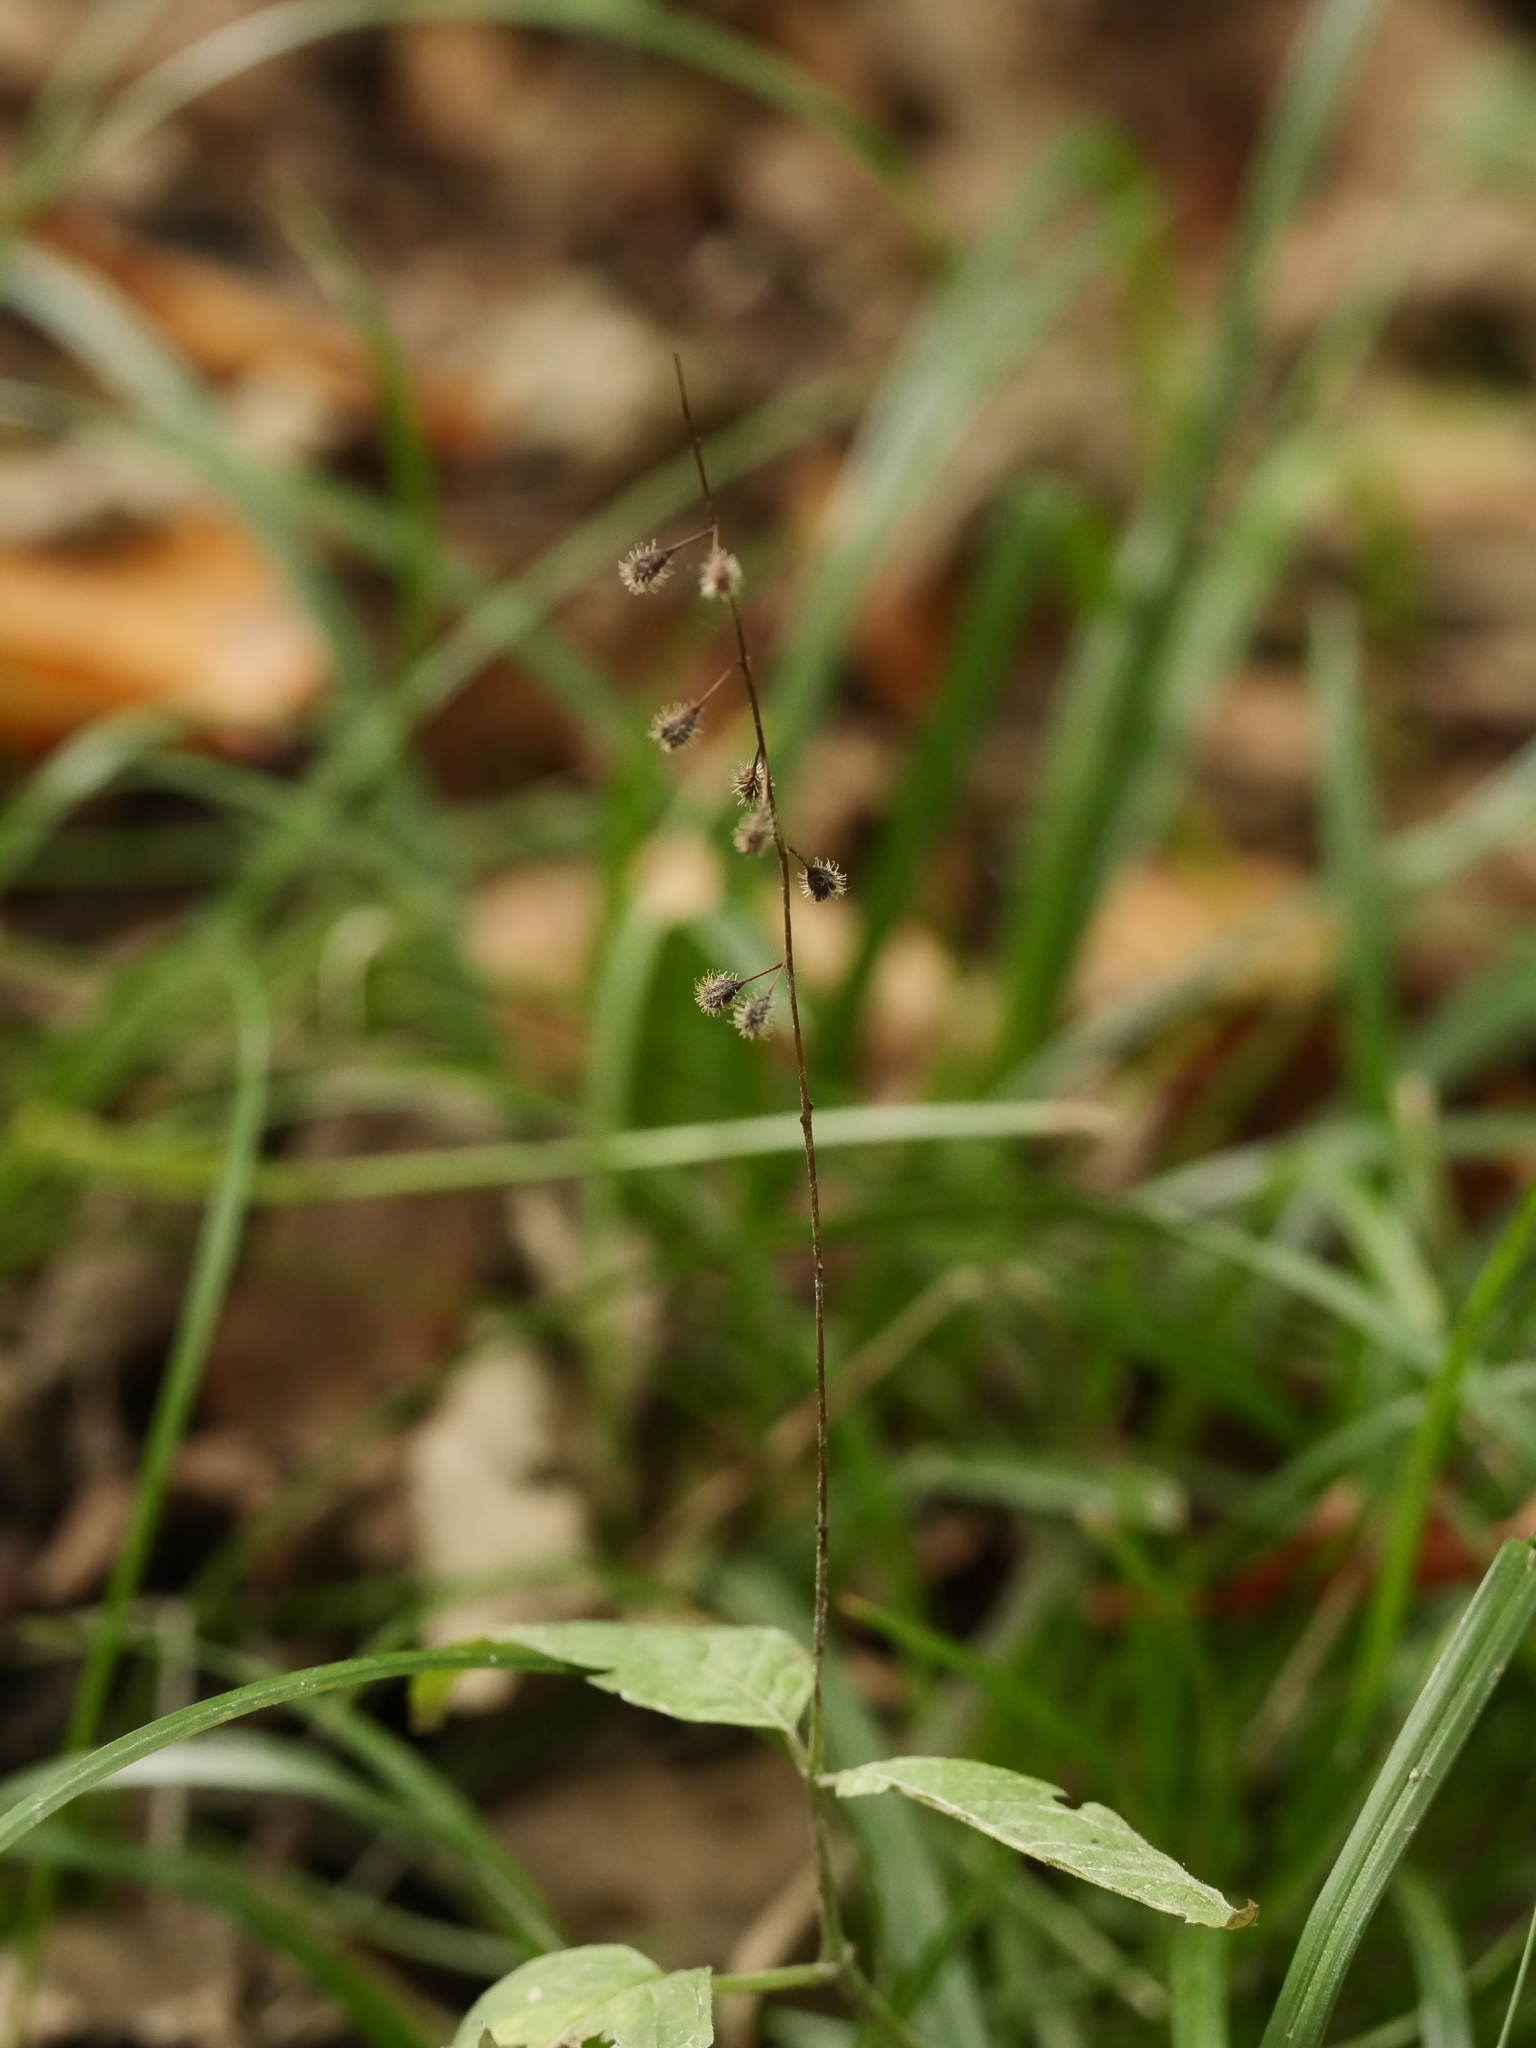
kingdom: Plantae
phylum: Tracheophyta
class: Magnoliopsida
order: Myrtales
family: Onagraceae
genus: Circaea
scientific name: Circaea lutetiana
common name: Enchanter's-nightshade
